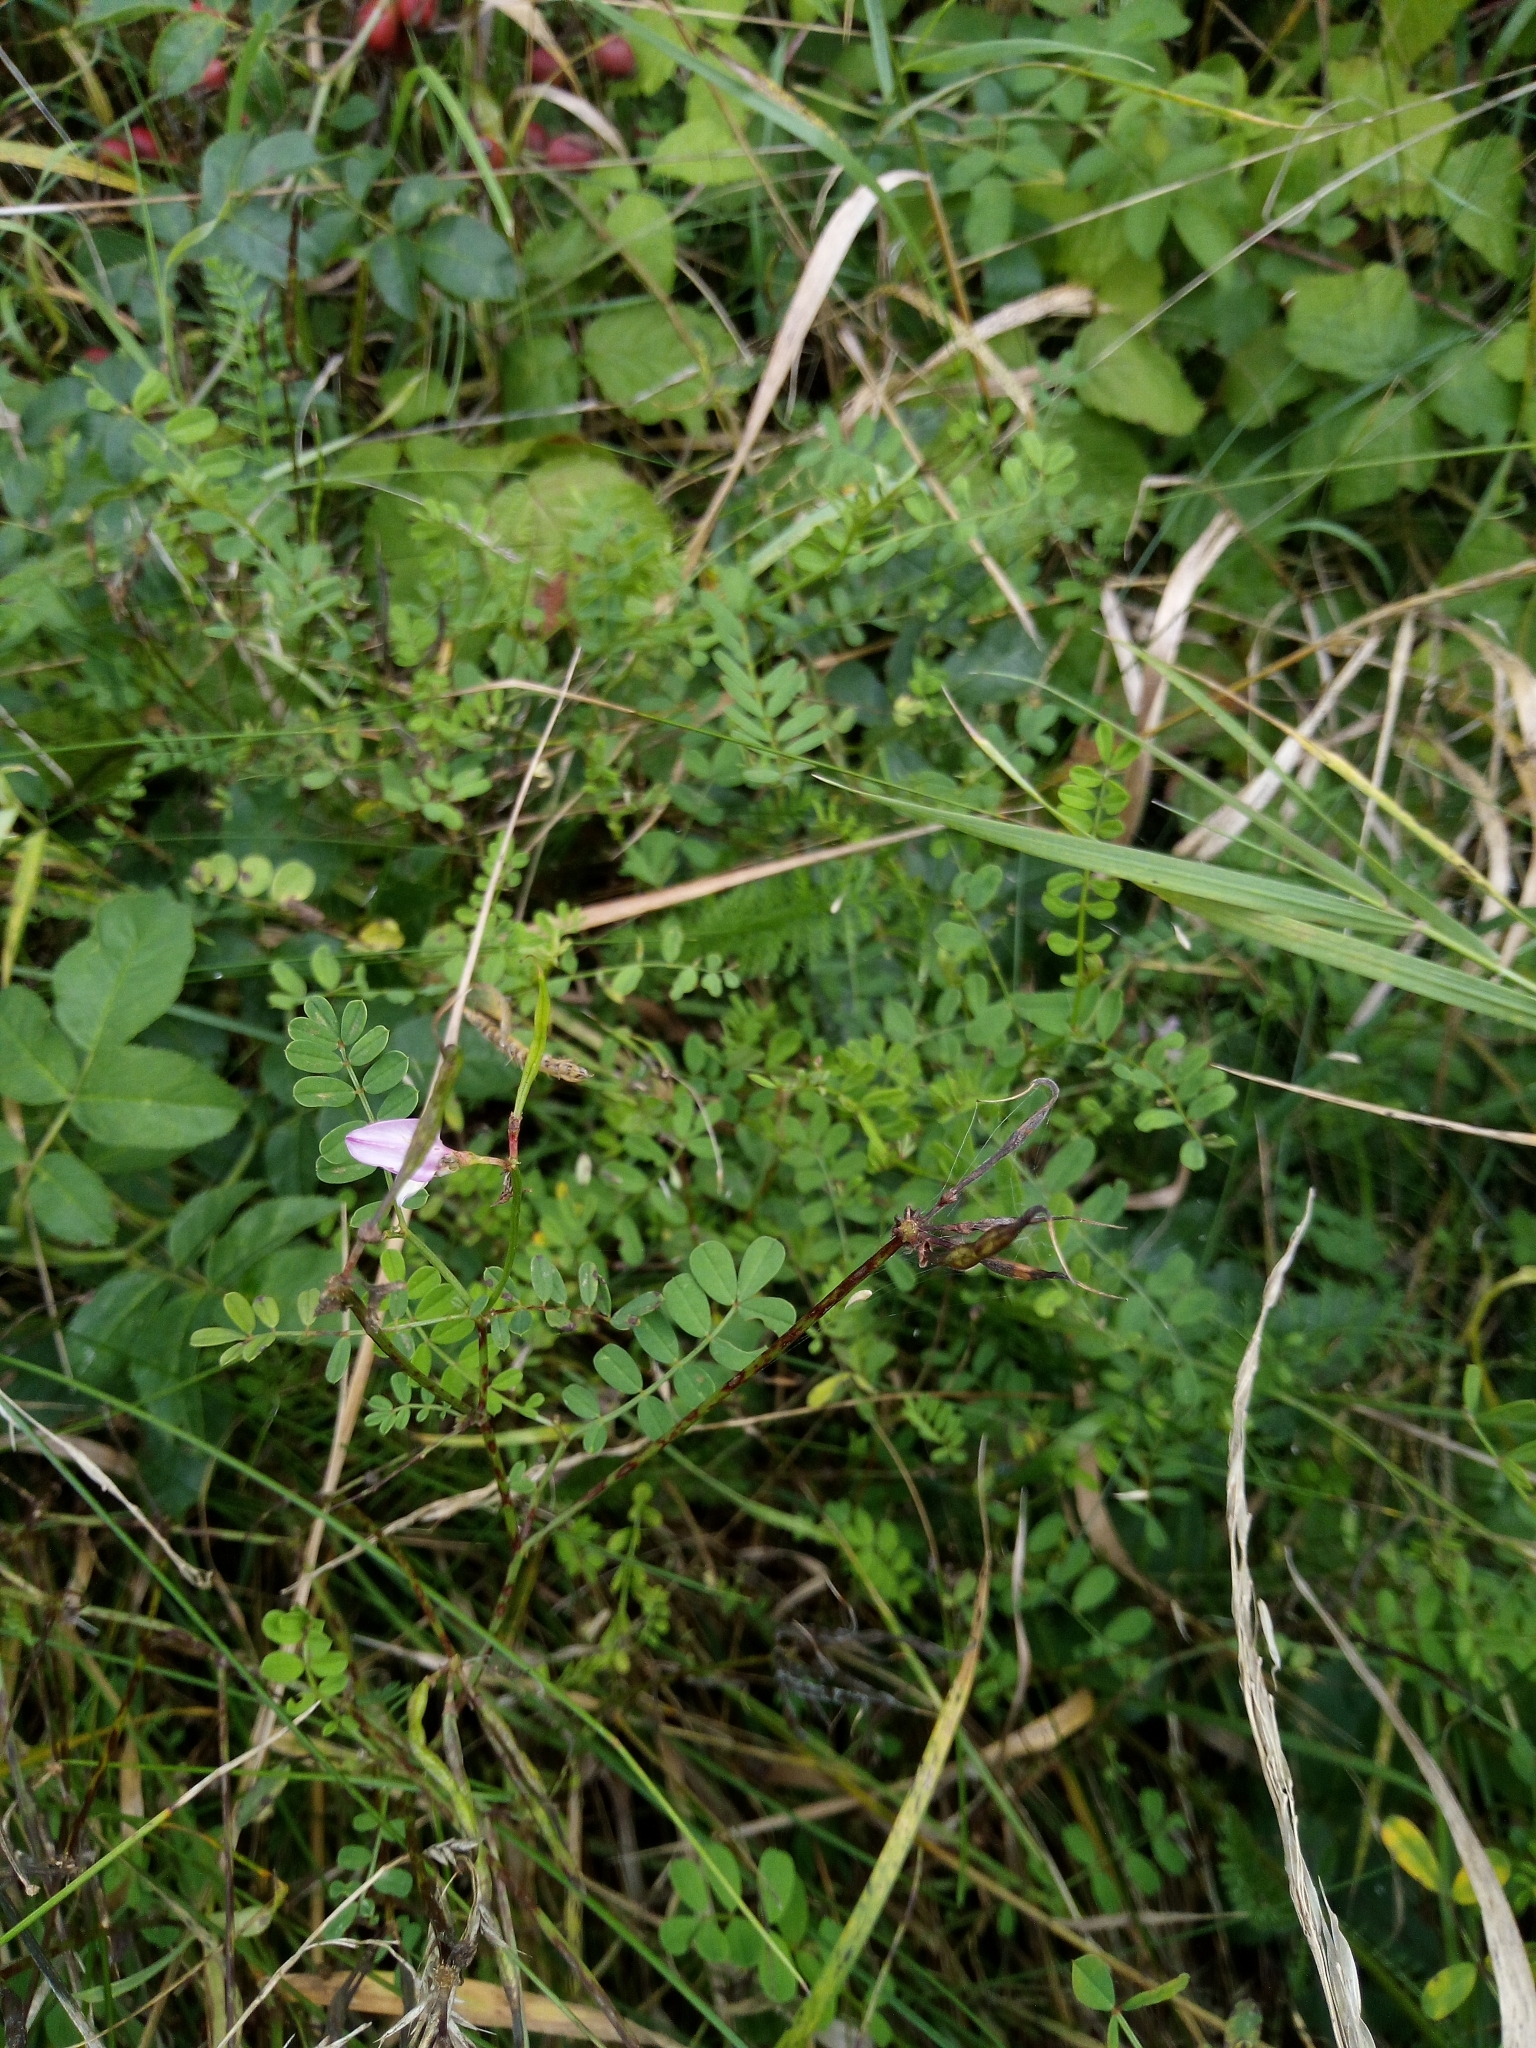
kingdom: Plantae
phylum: Tracheophyta
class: Magnoliopsida
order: Fabales
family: Fabaceae
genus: Coronilla
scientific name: Coronilla varia
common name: Crownvetch
